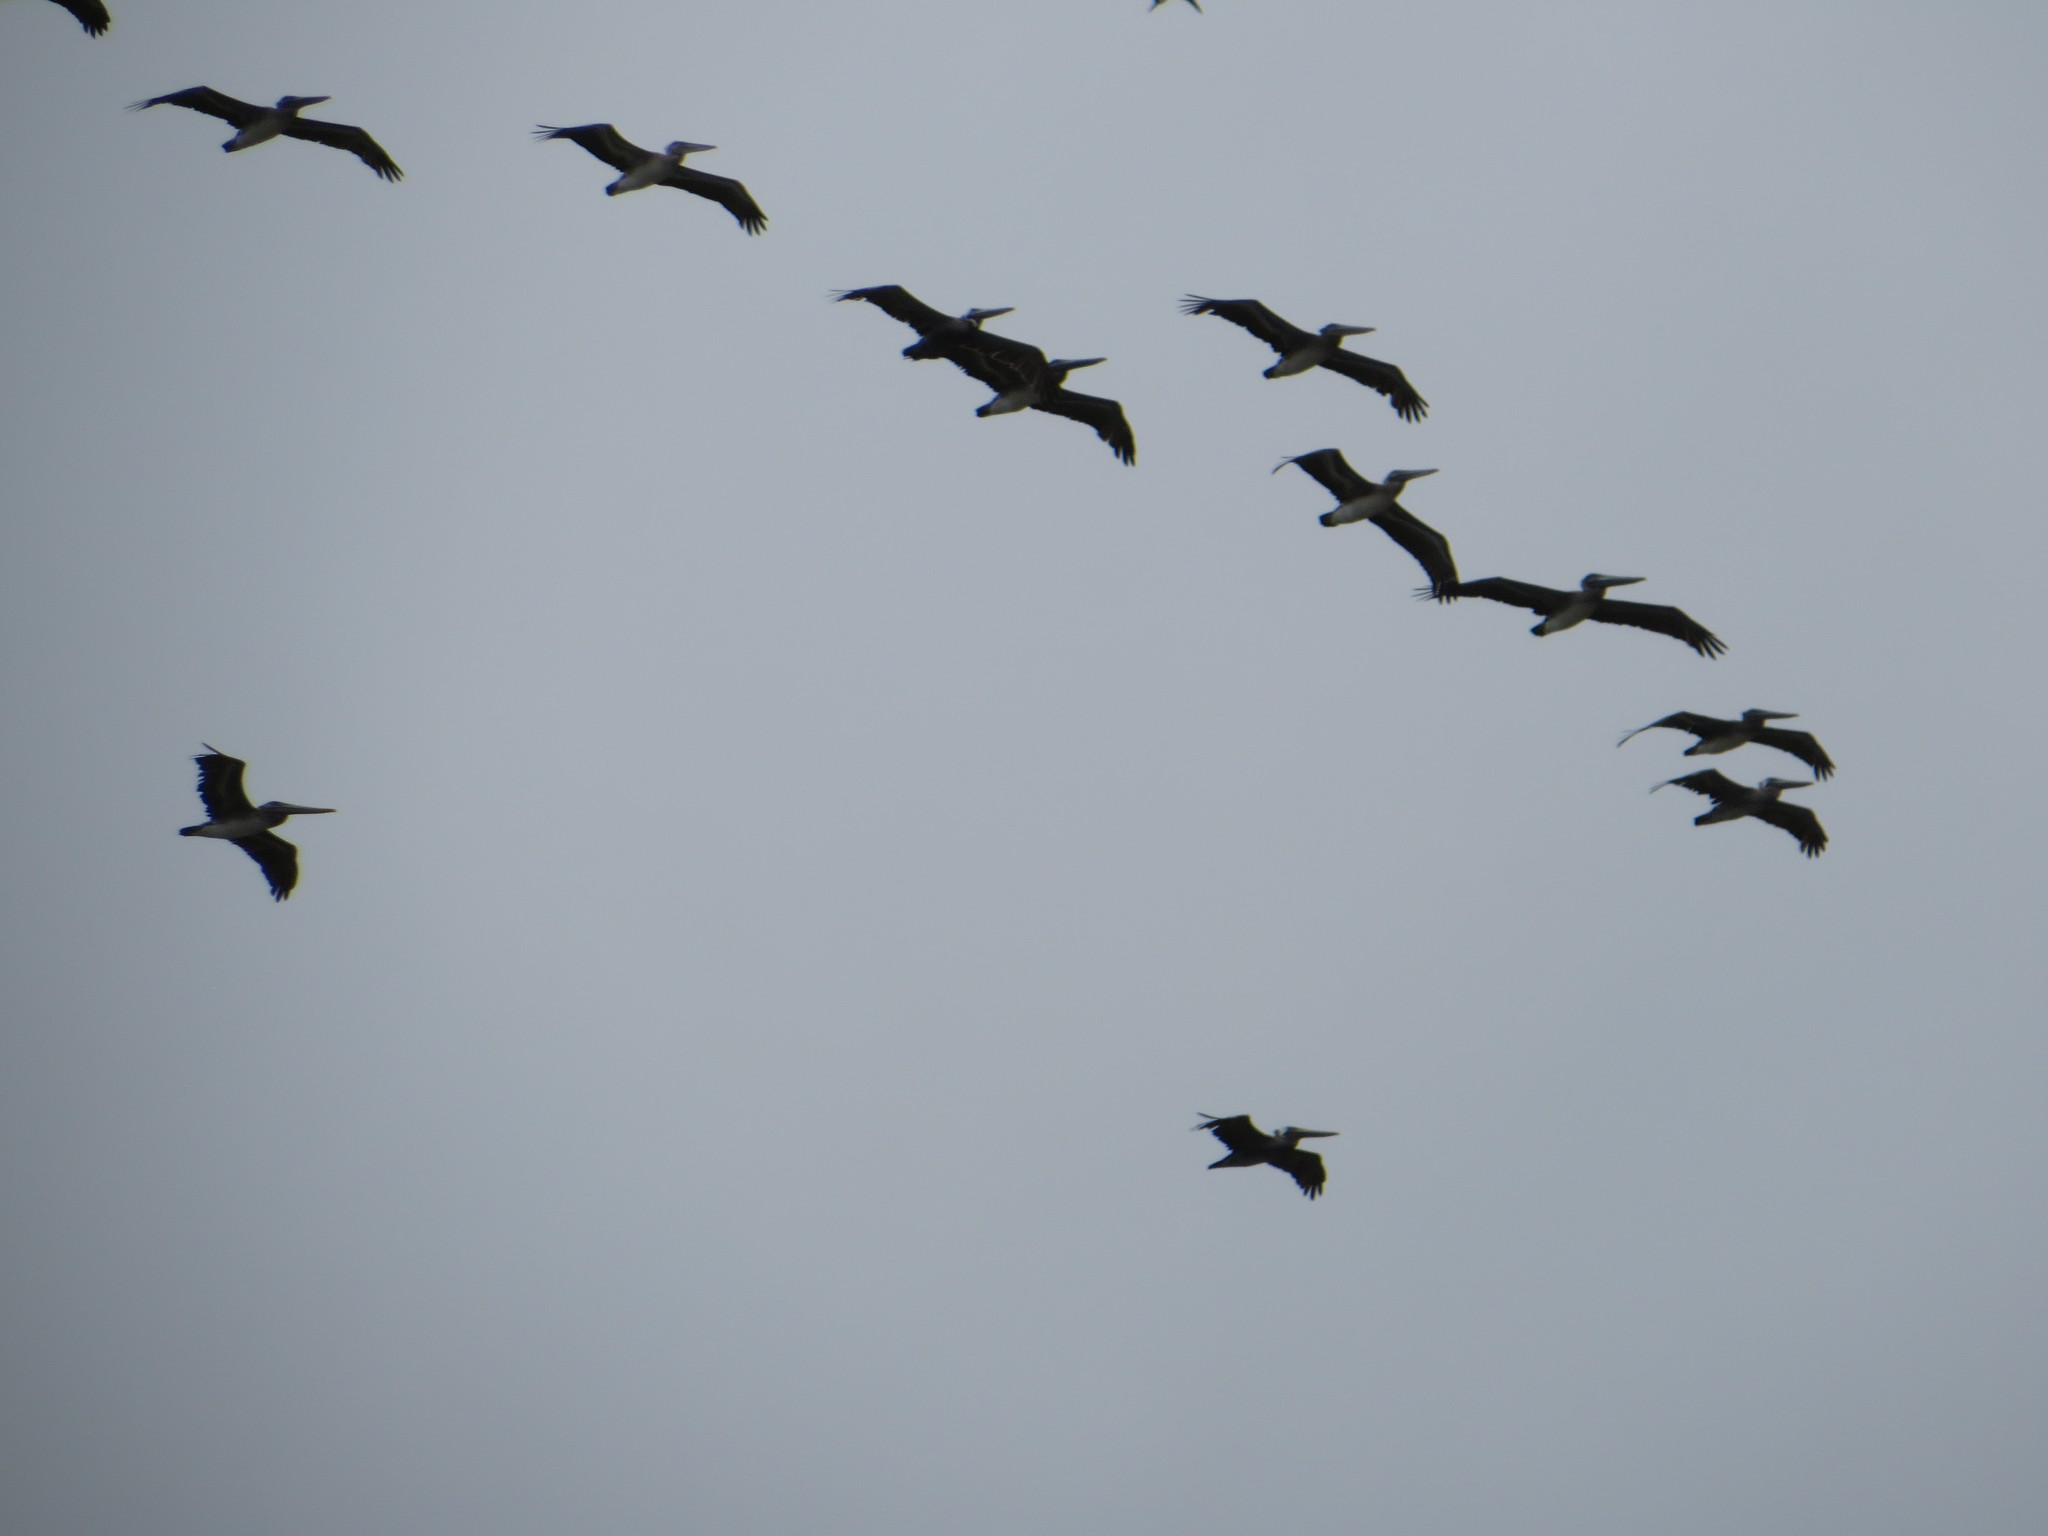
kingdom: Animalia
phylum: Chordata
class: Aves
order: Pelecaniformes
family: Pelecanidae
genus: Pelecanus
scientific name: Pelecanus occidentalis
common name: Brown pelican
